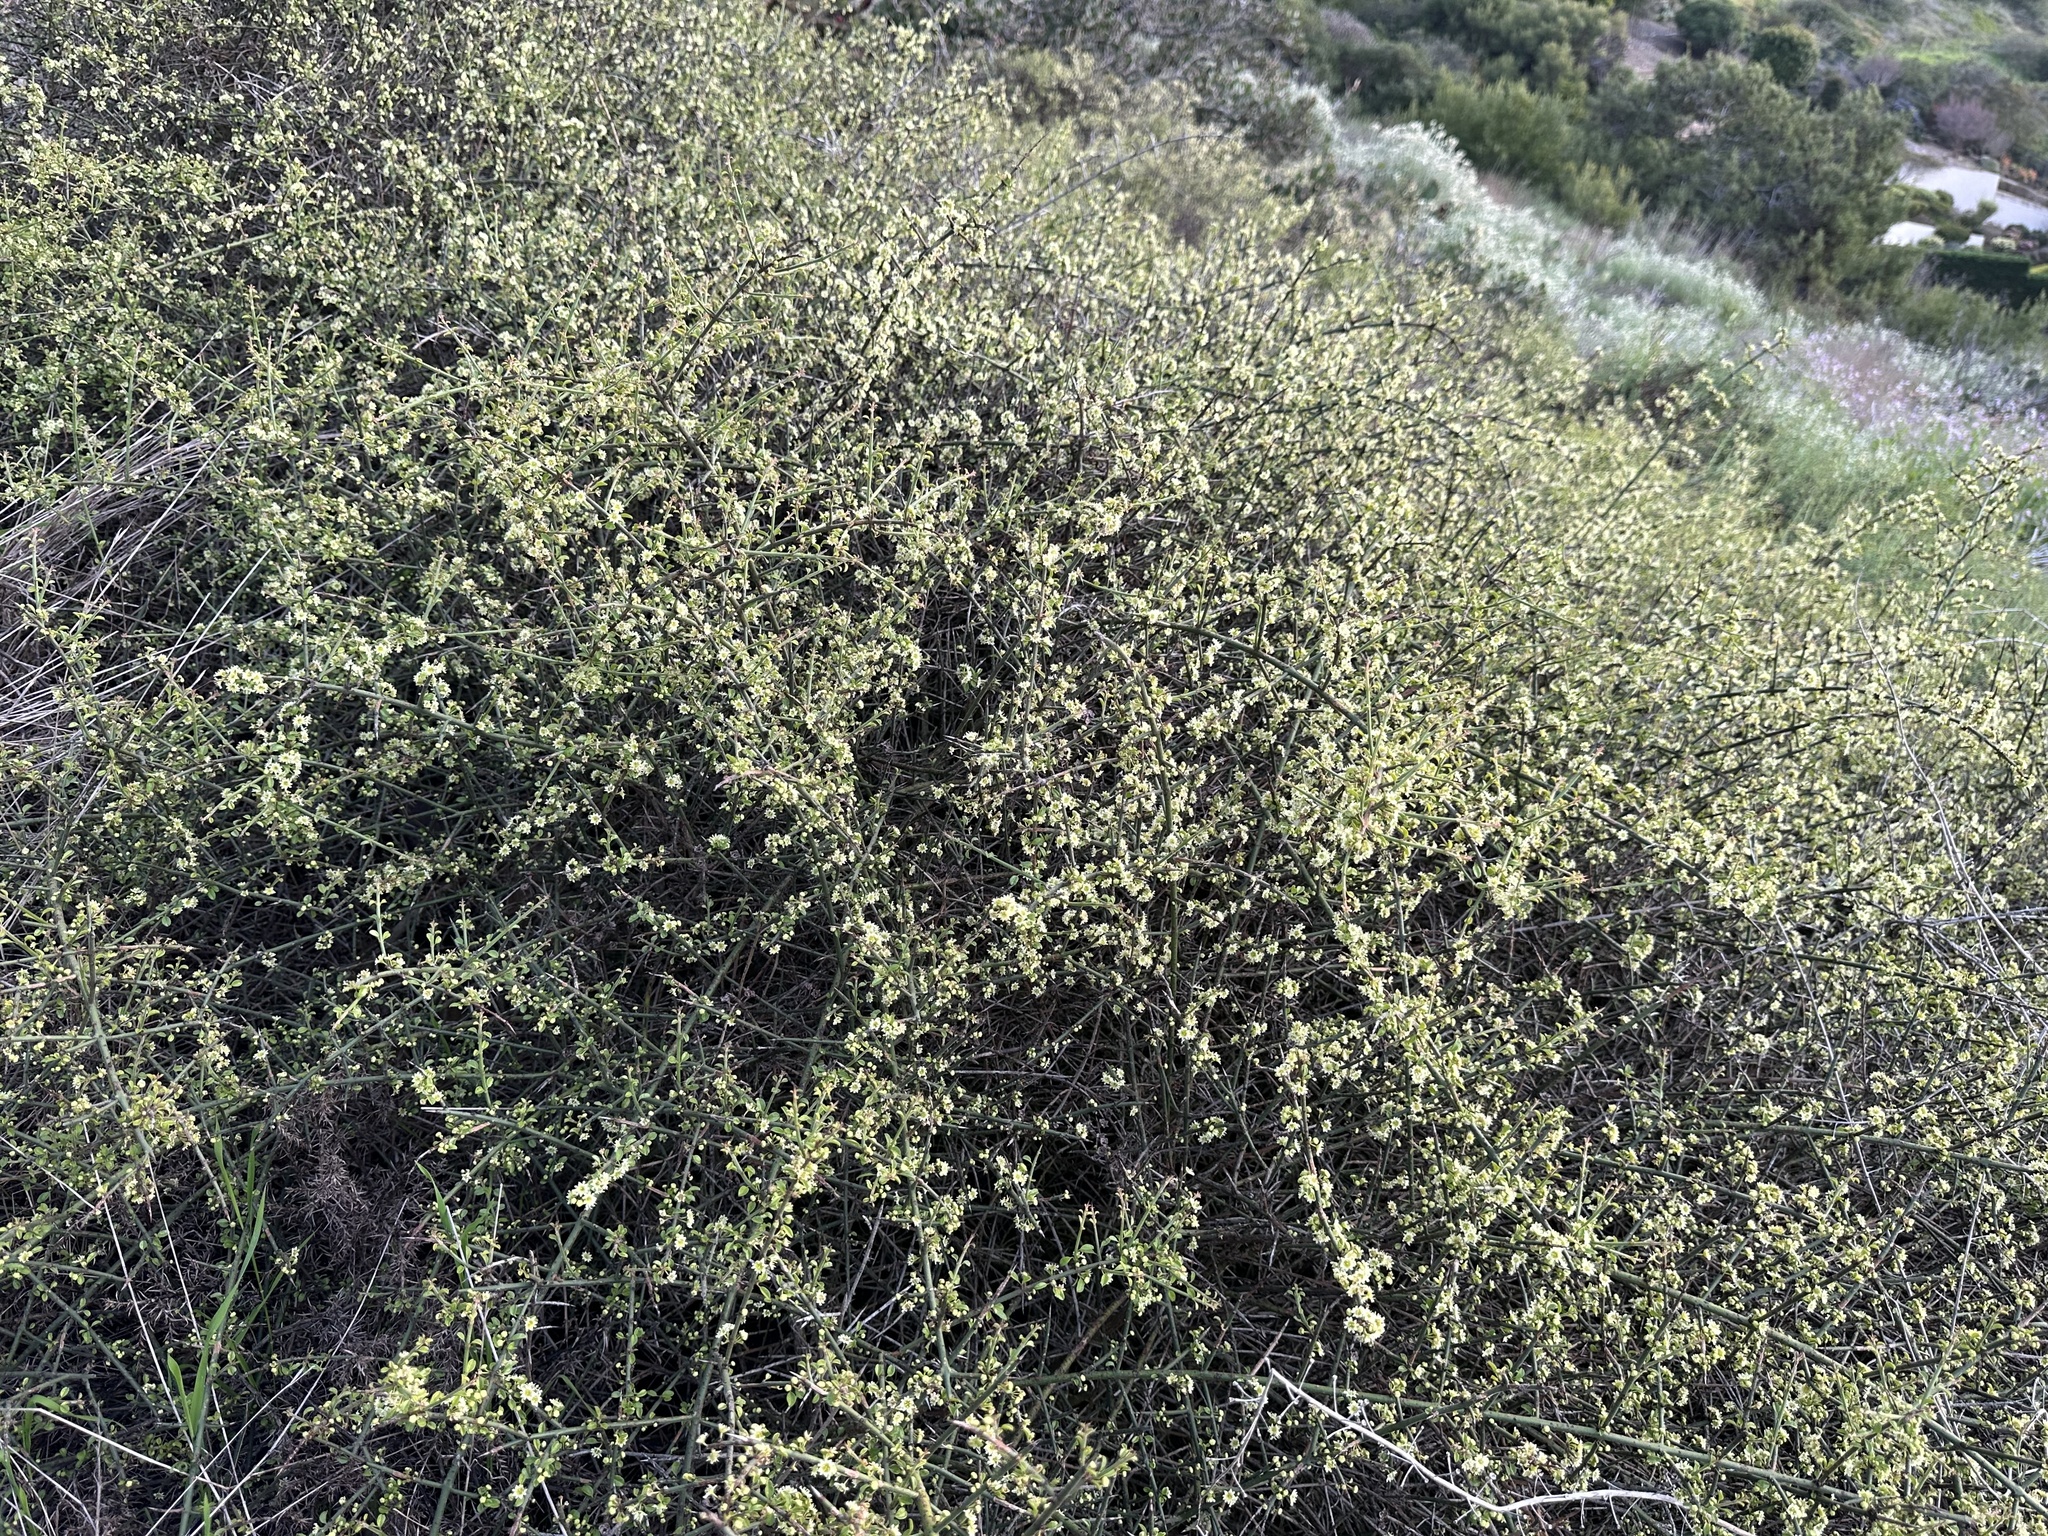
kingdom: Plantae
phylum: Tracheophyta
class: Magnoliopsida
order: Rosales
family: Rhamnaceae
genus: Adolphia
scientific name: Adolphia californica
